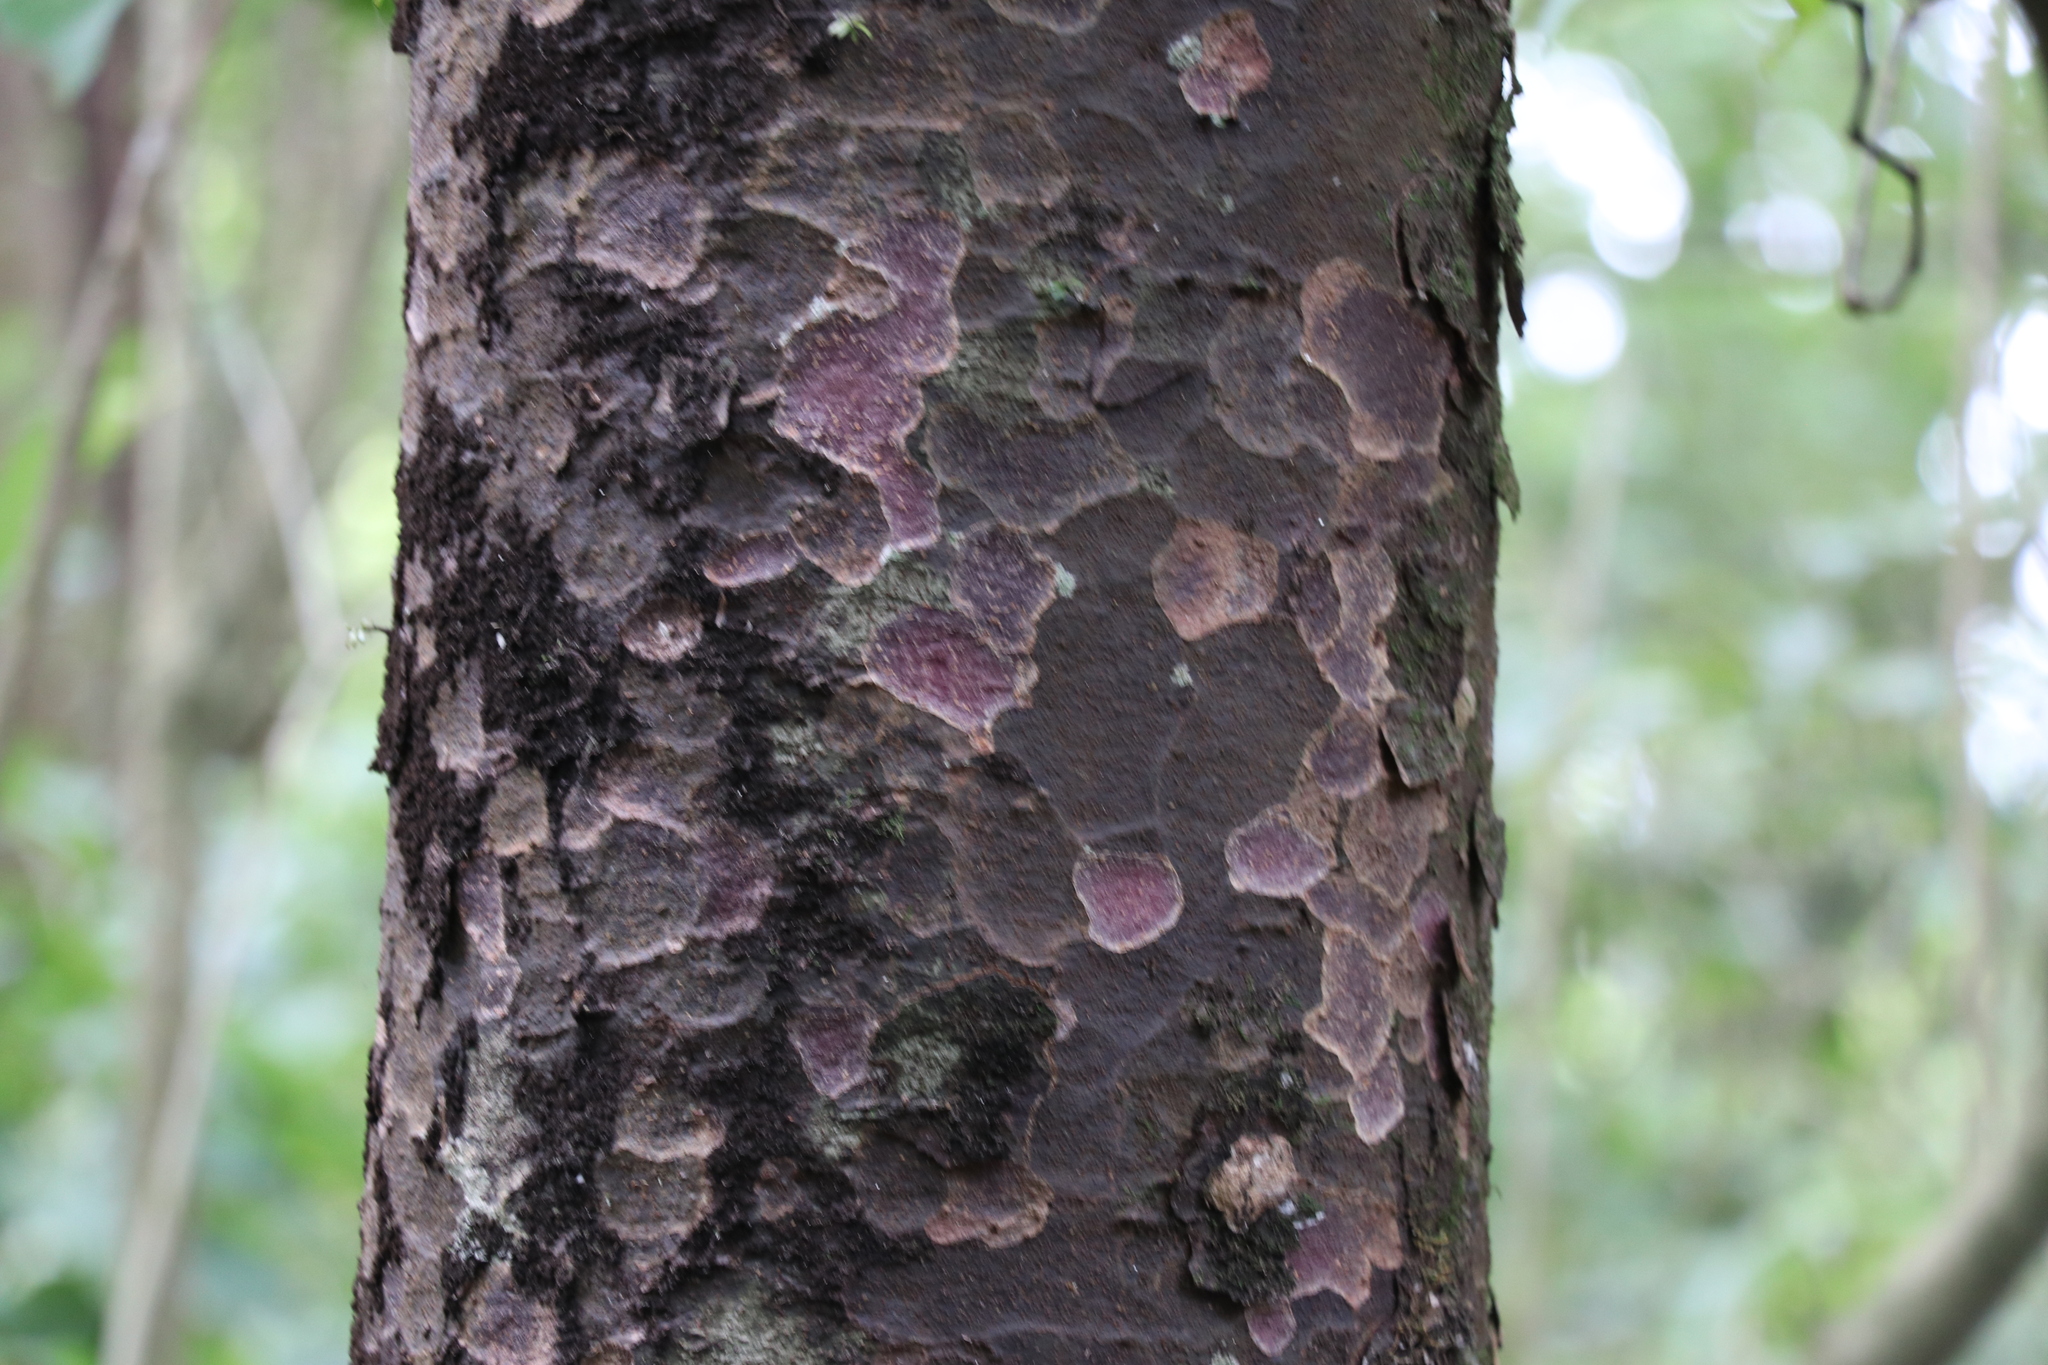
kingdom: Plantae
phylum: Tracheophyta
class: Pinopsida
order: Pinales
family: Podocarpaceae
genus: Prumnopitys
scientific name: Prumnopitys taxifolia
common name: Matai
